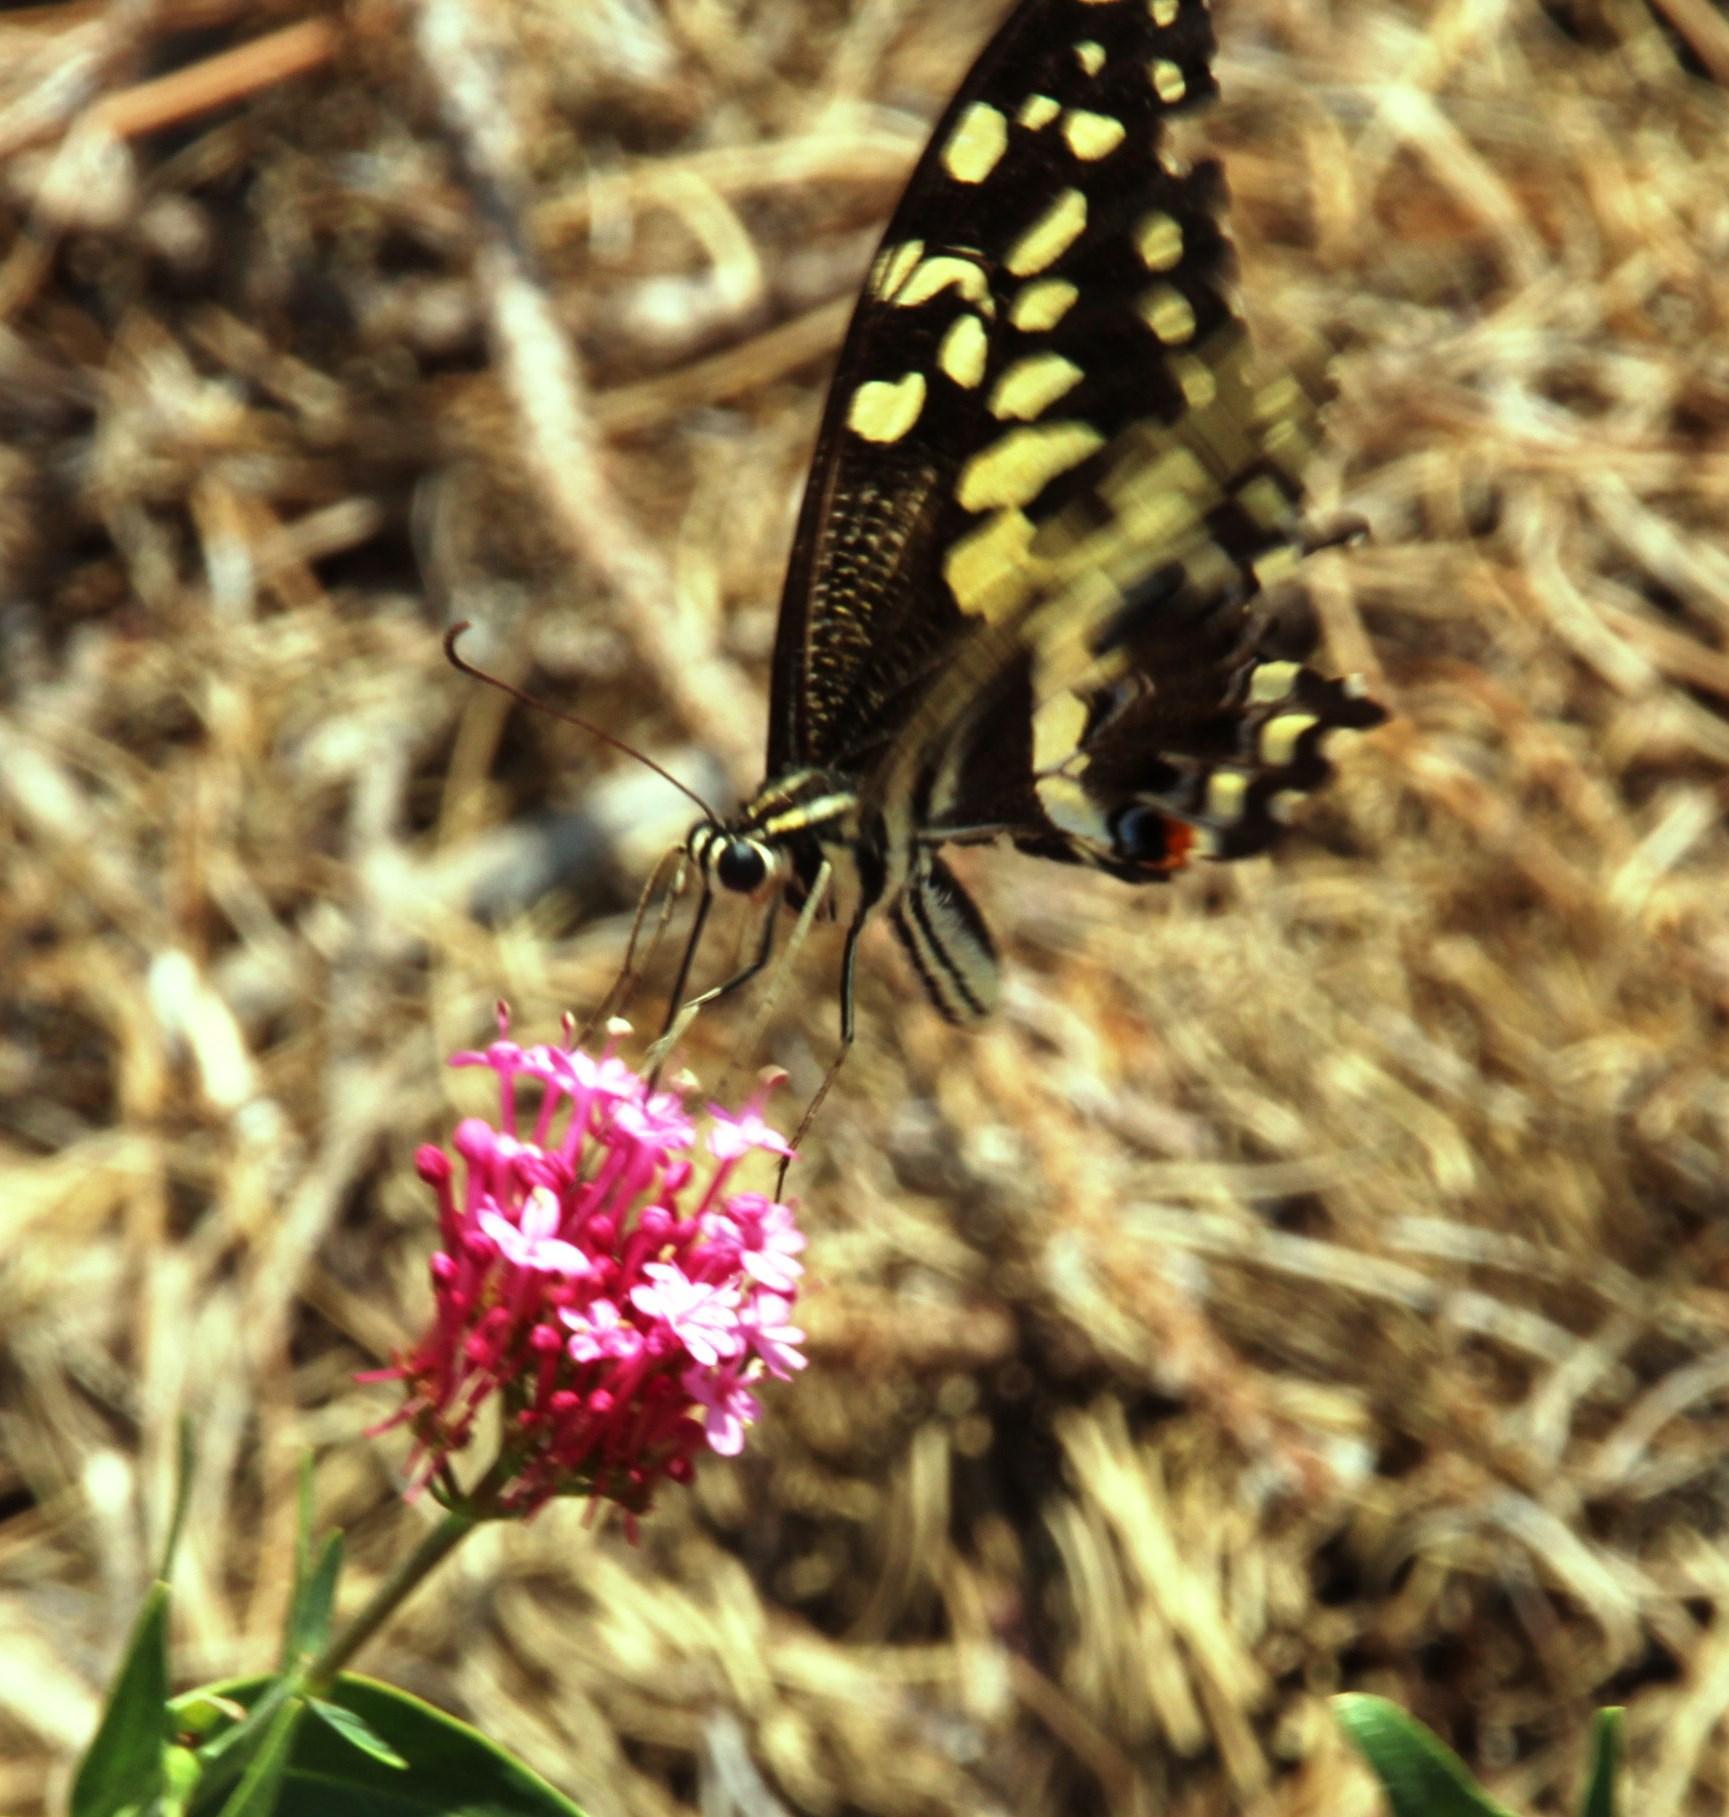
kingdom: Animalia
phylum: Arthropoda
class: Insecta
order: Lepidoptera
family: Papilionidae
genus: Papilio
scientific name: Papilio demodocus
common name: Christmas butterfly
